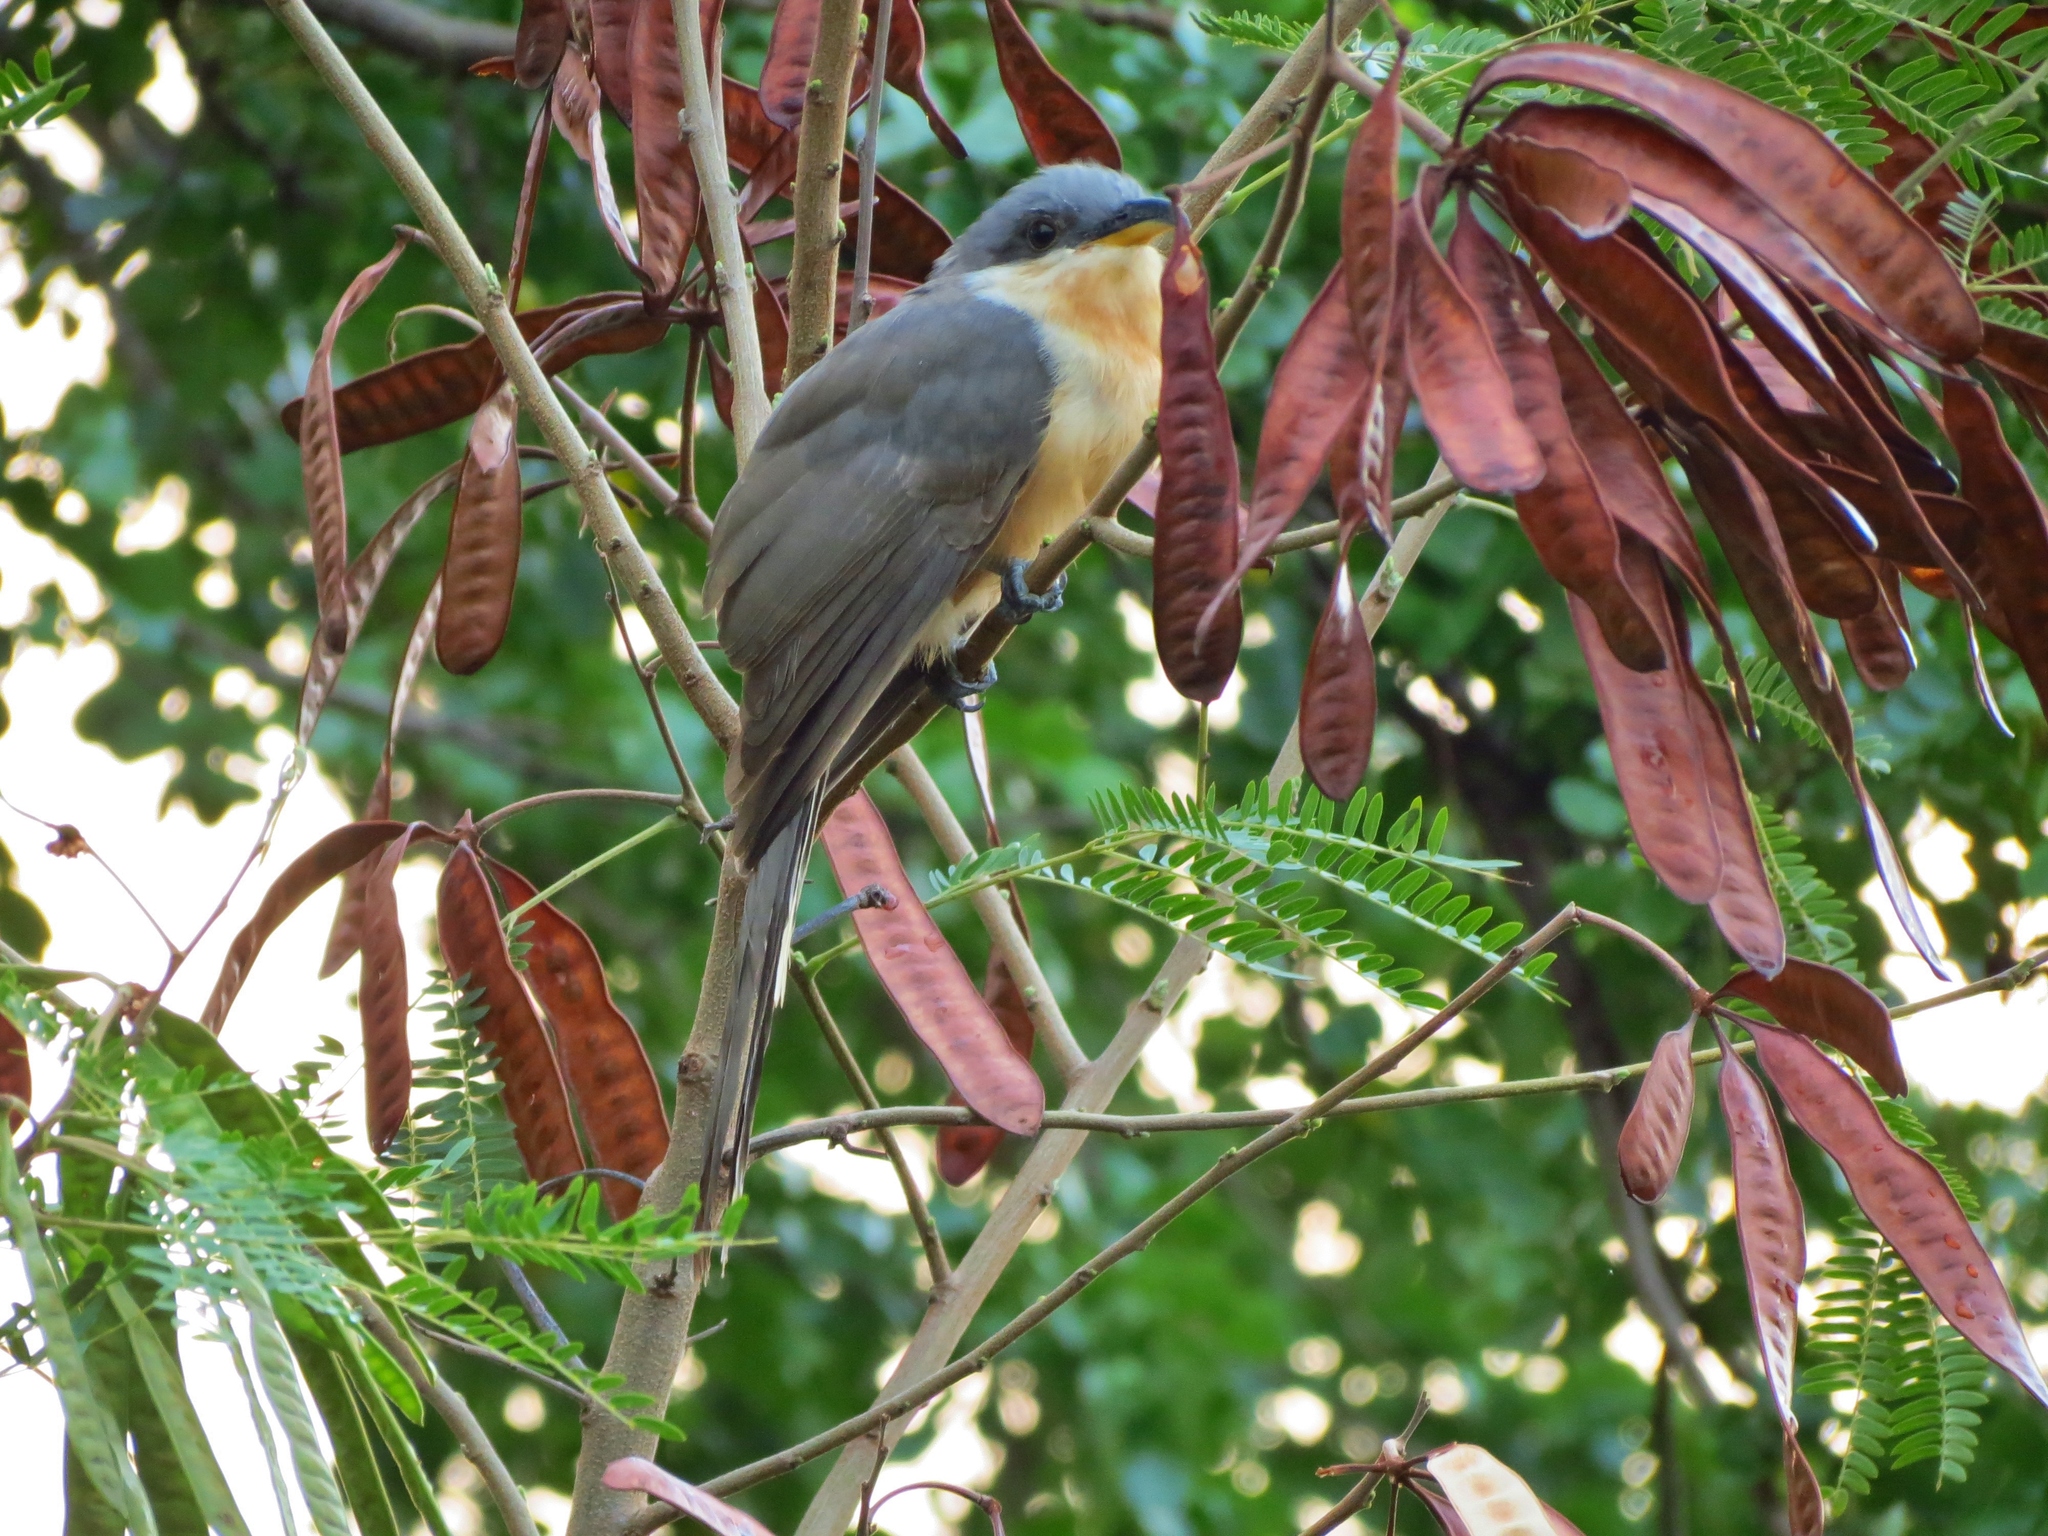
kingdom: Animalia
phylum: Chordata
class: Aves
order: Cuculiformes
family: Cuculidae
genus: Coccyzus
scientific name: Coccyzus minor
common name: Mangrove cuckoo
